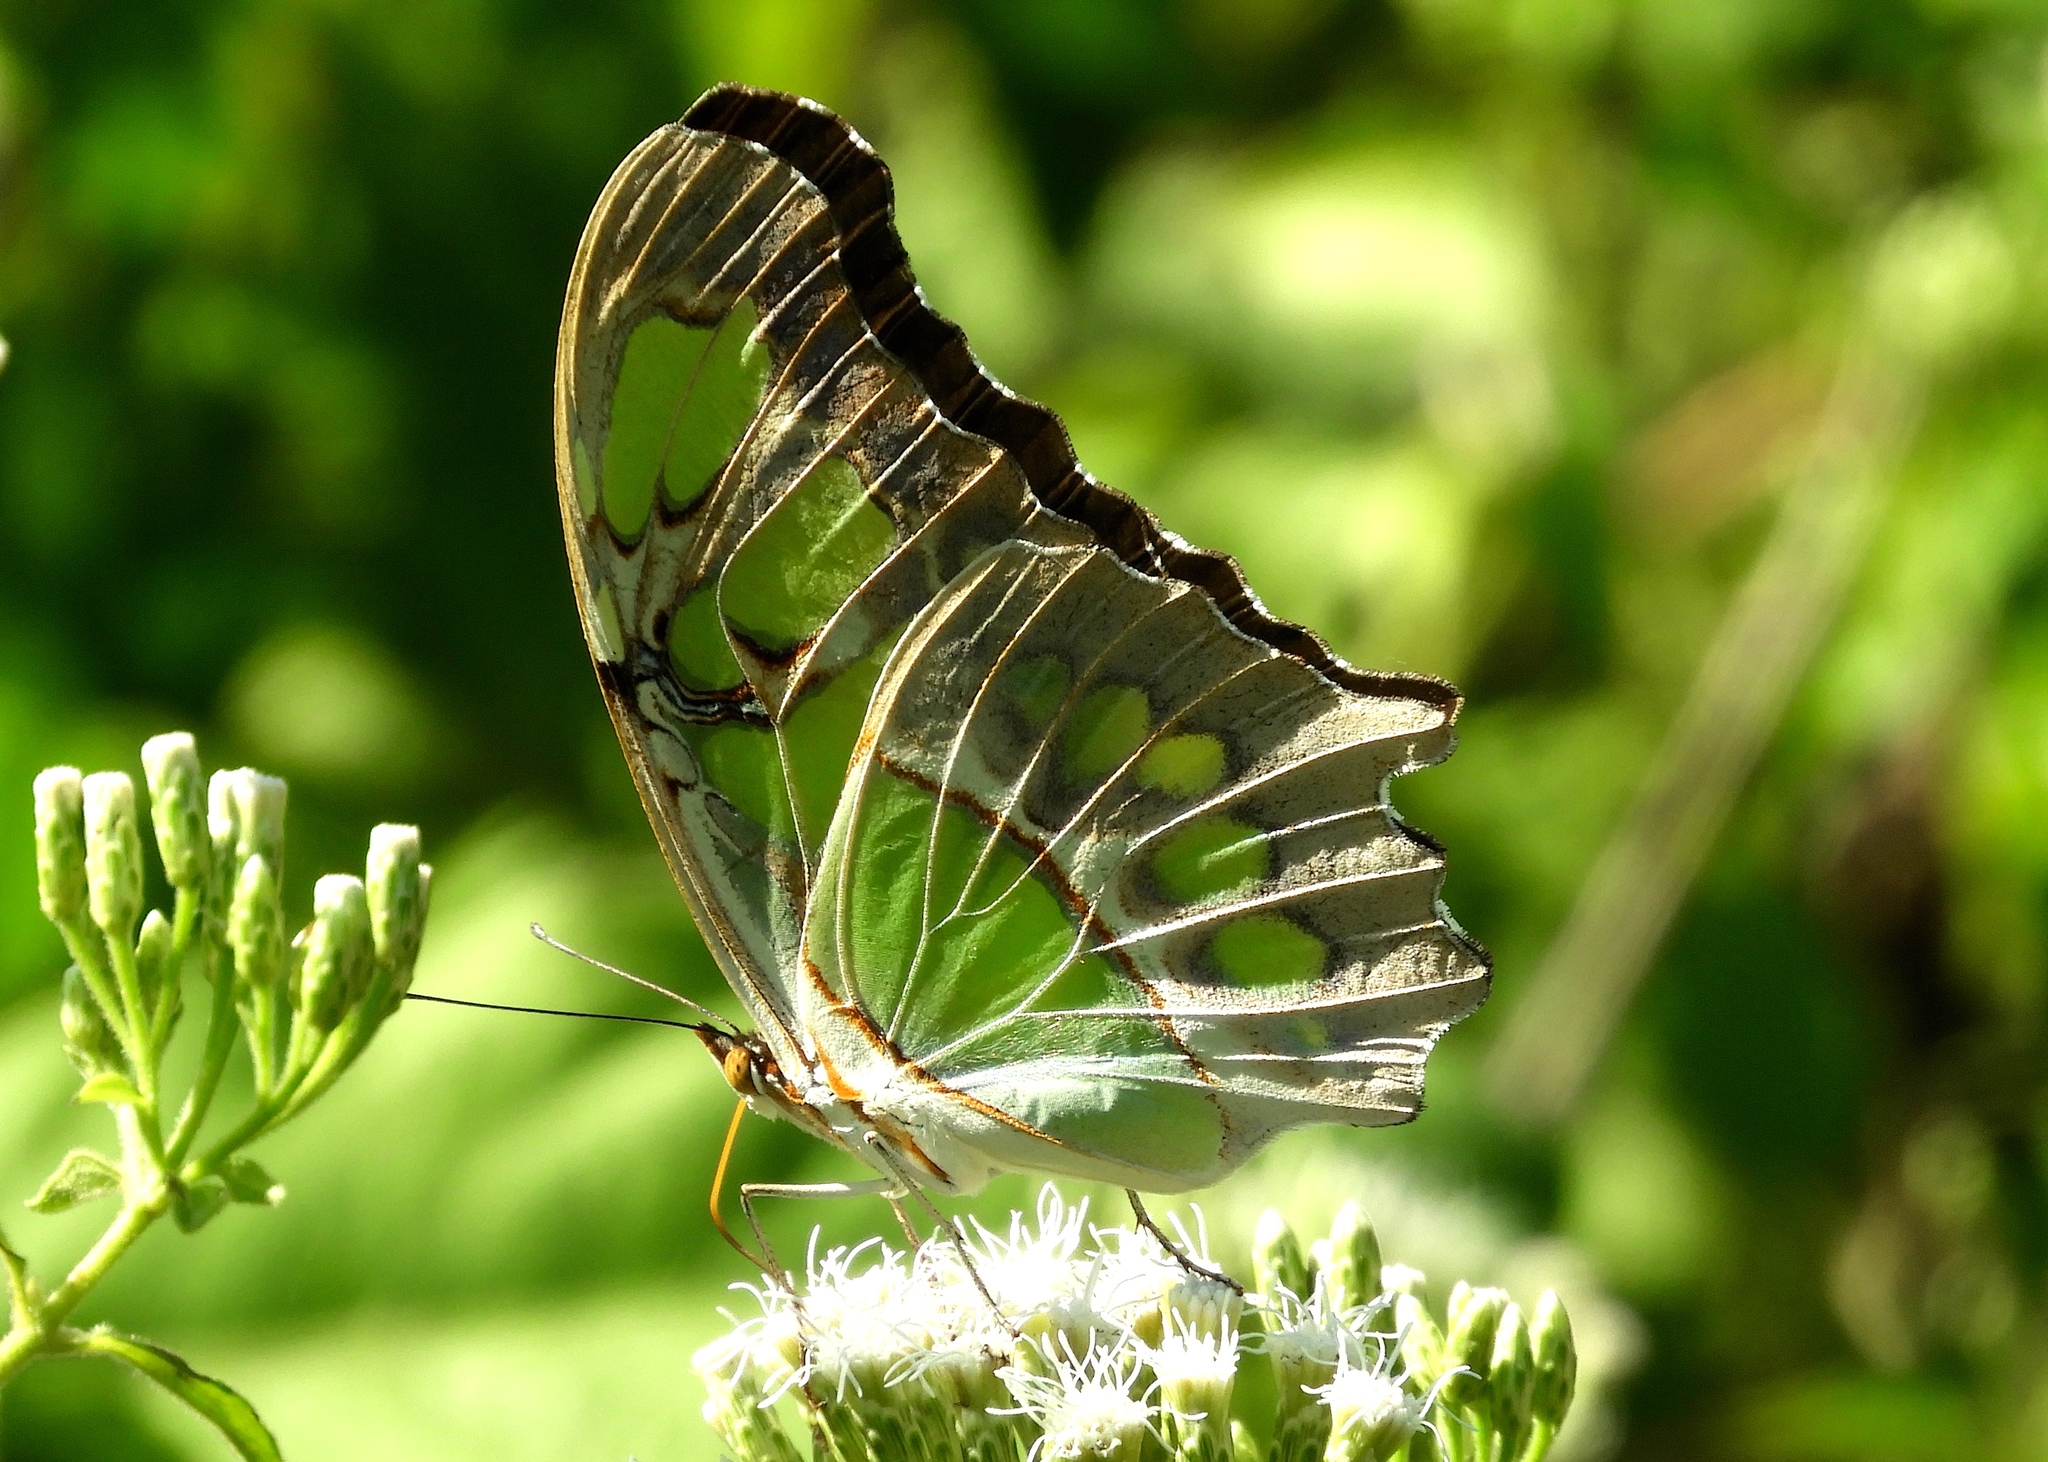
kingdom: Animalia
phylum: Arthropoda
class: Insecta
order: Lepidoptera
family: Nymphalidae
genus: Siproeta
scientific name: Siproeta stelenes
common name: Malachite
